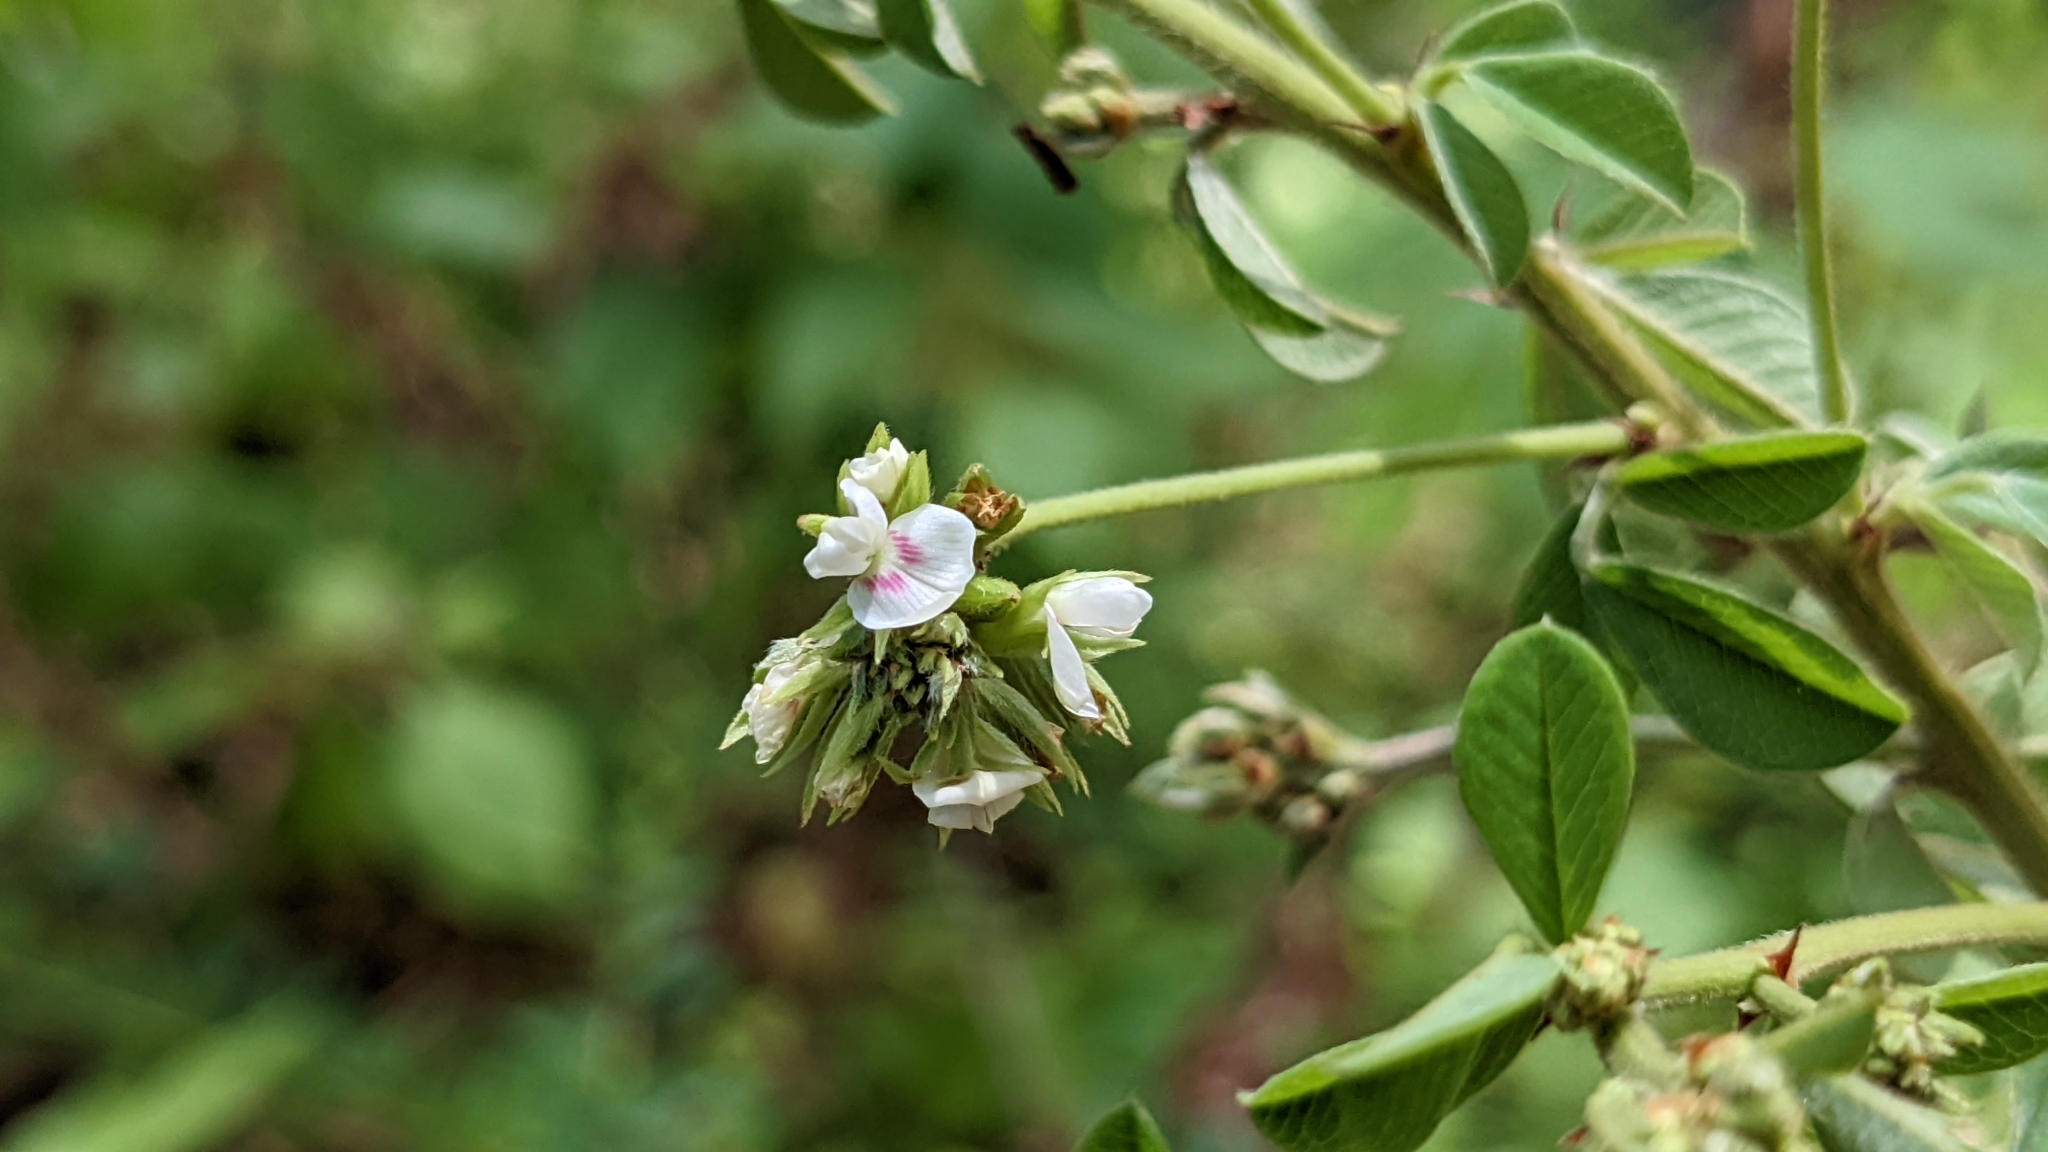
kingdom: Plantae
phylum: Tracheophyta
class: Magnoliopsida
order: Fabales
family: Fabaceae
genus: Lespedeza
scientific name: Lespedeza hirta
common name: Hairy lespedeza
